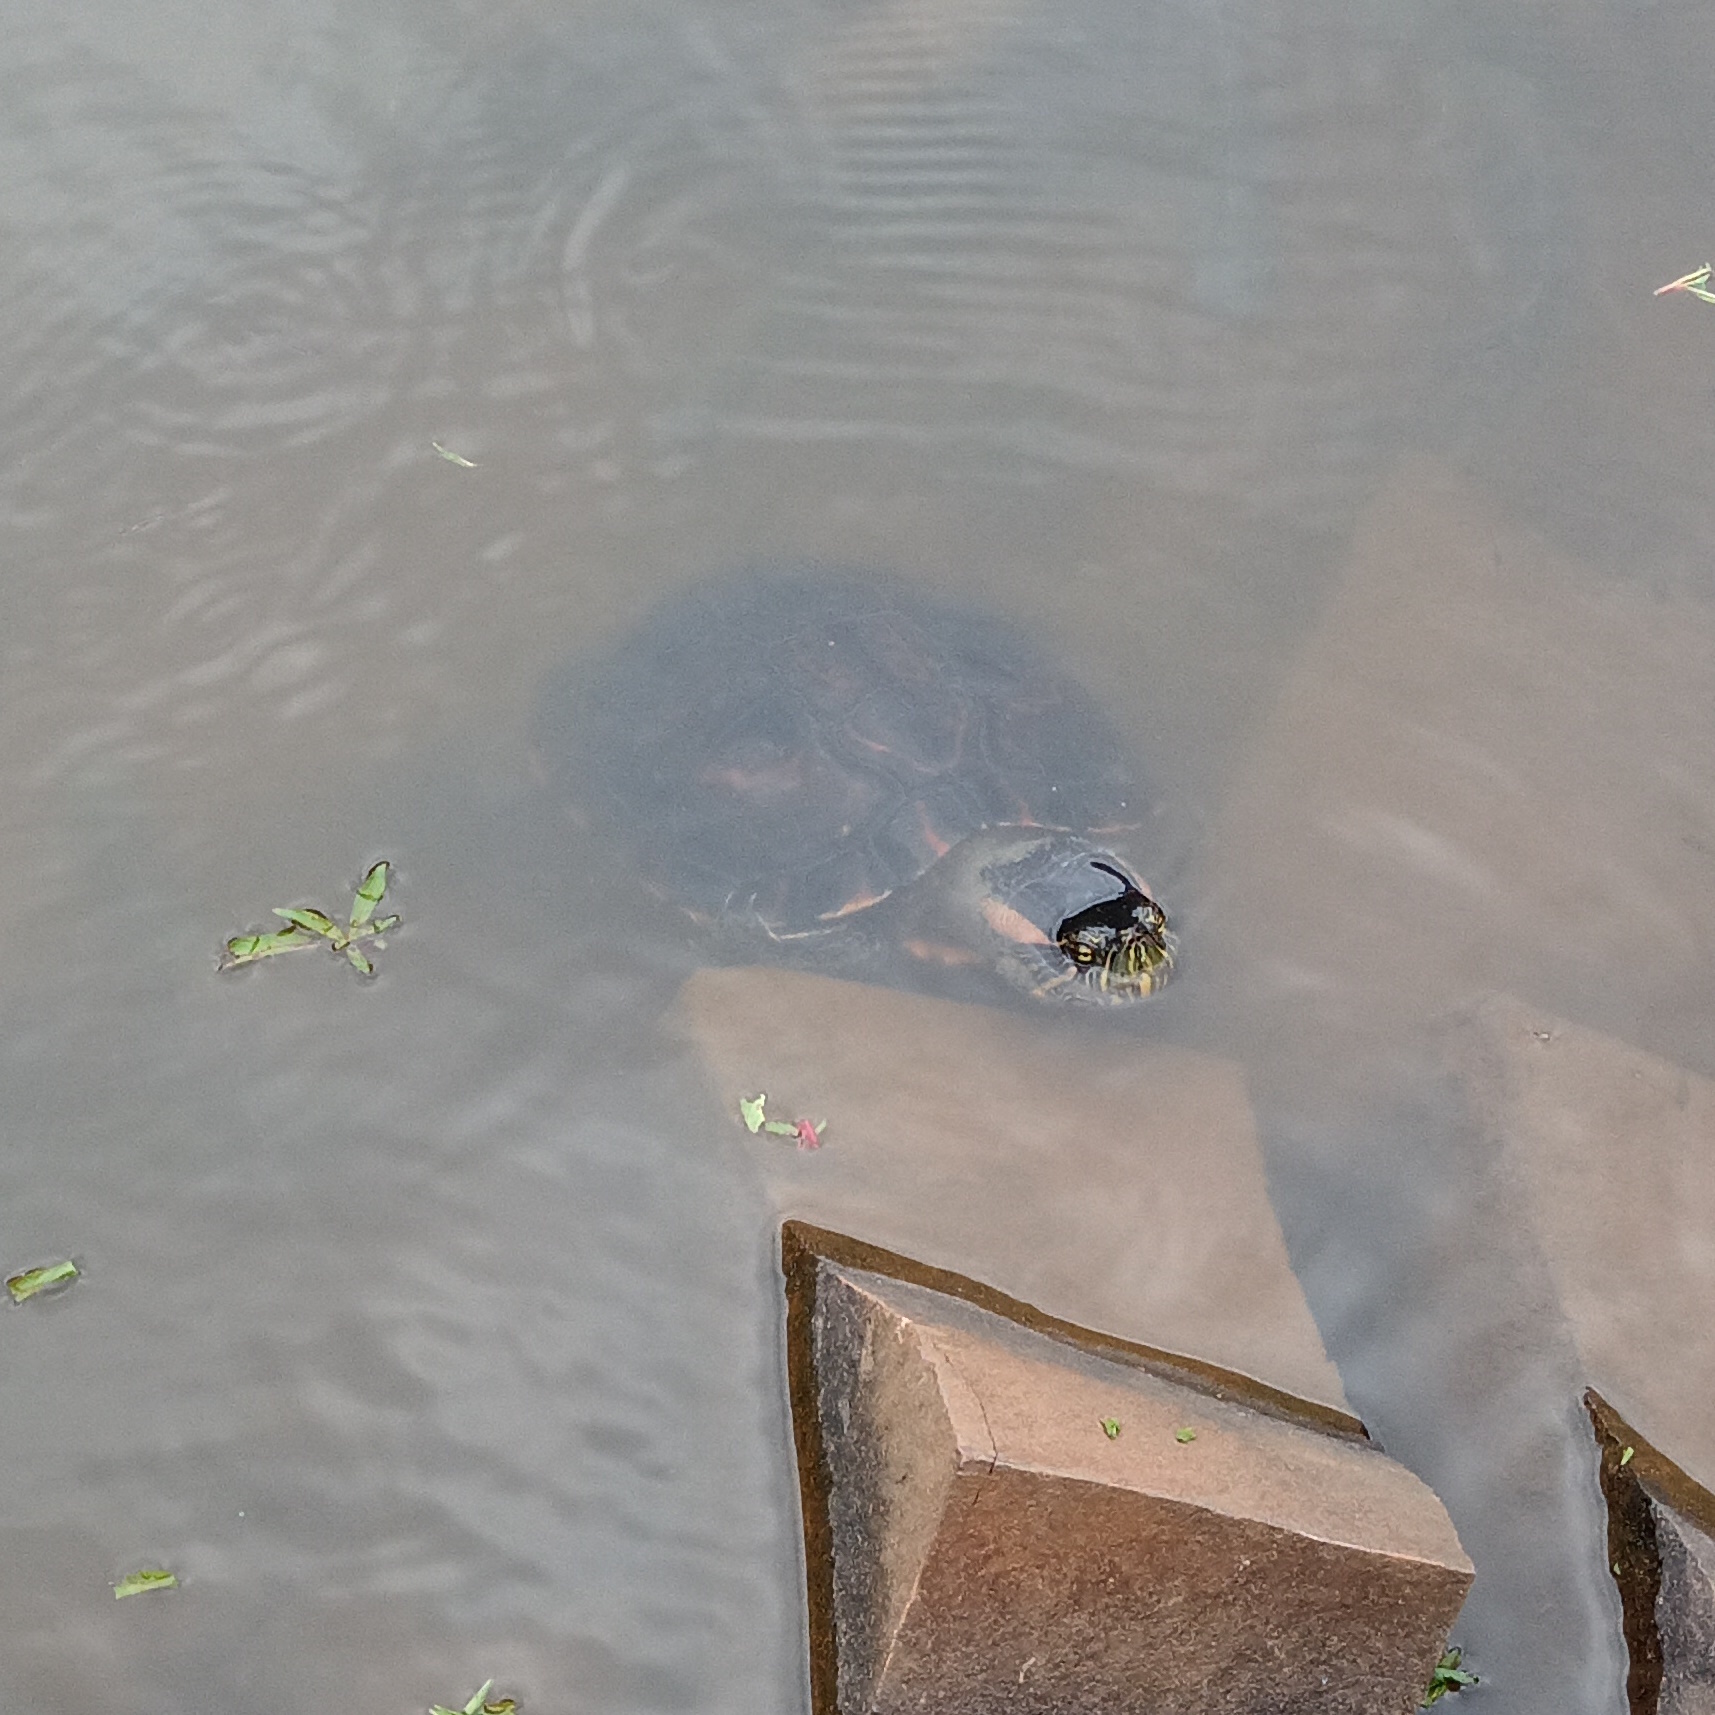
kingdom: Animalia
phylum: Chordata
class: Testudines
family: Emydidae
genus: Trachemys
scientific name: Trachemys dorbigni
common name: Black-bellied slider
